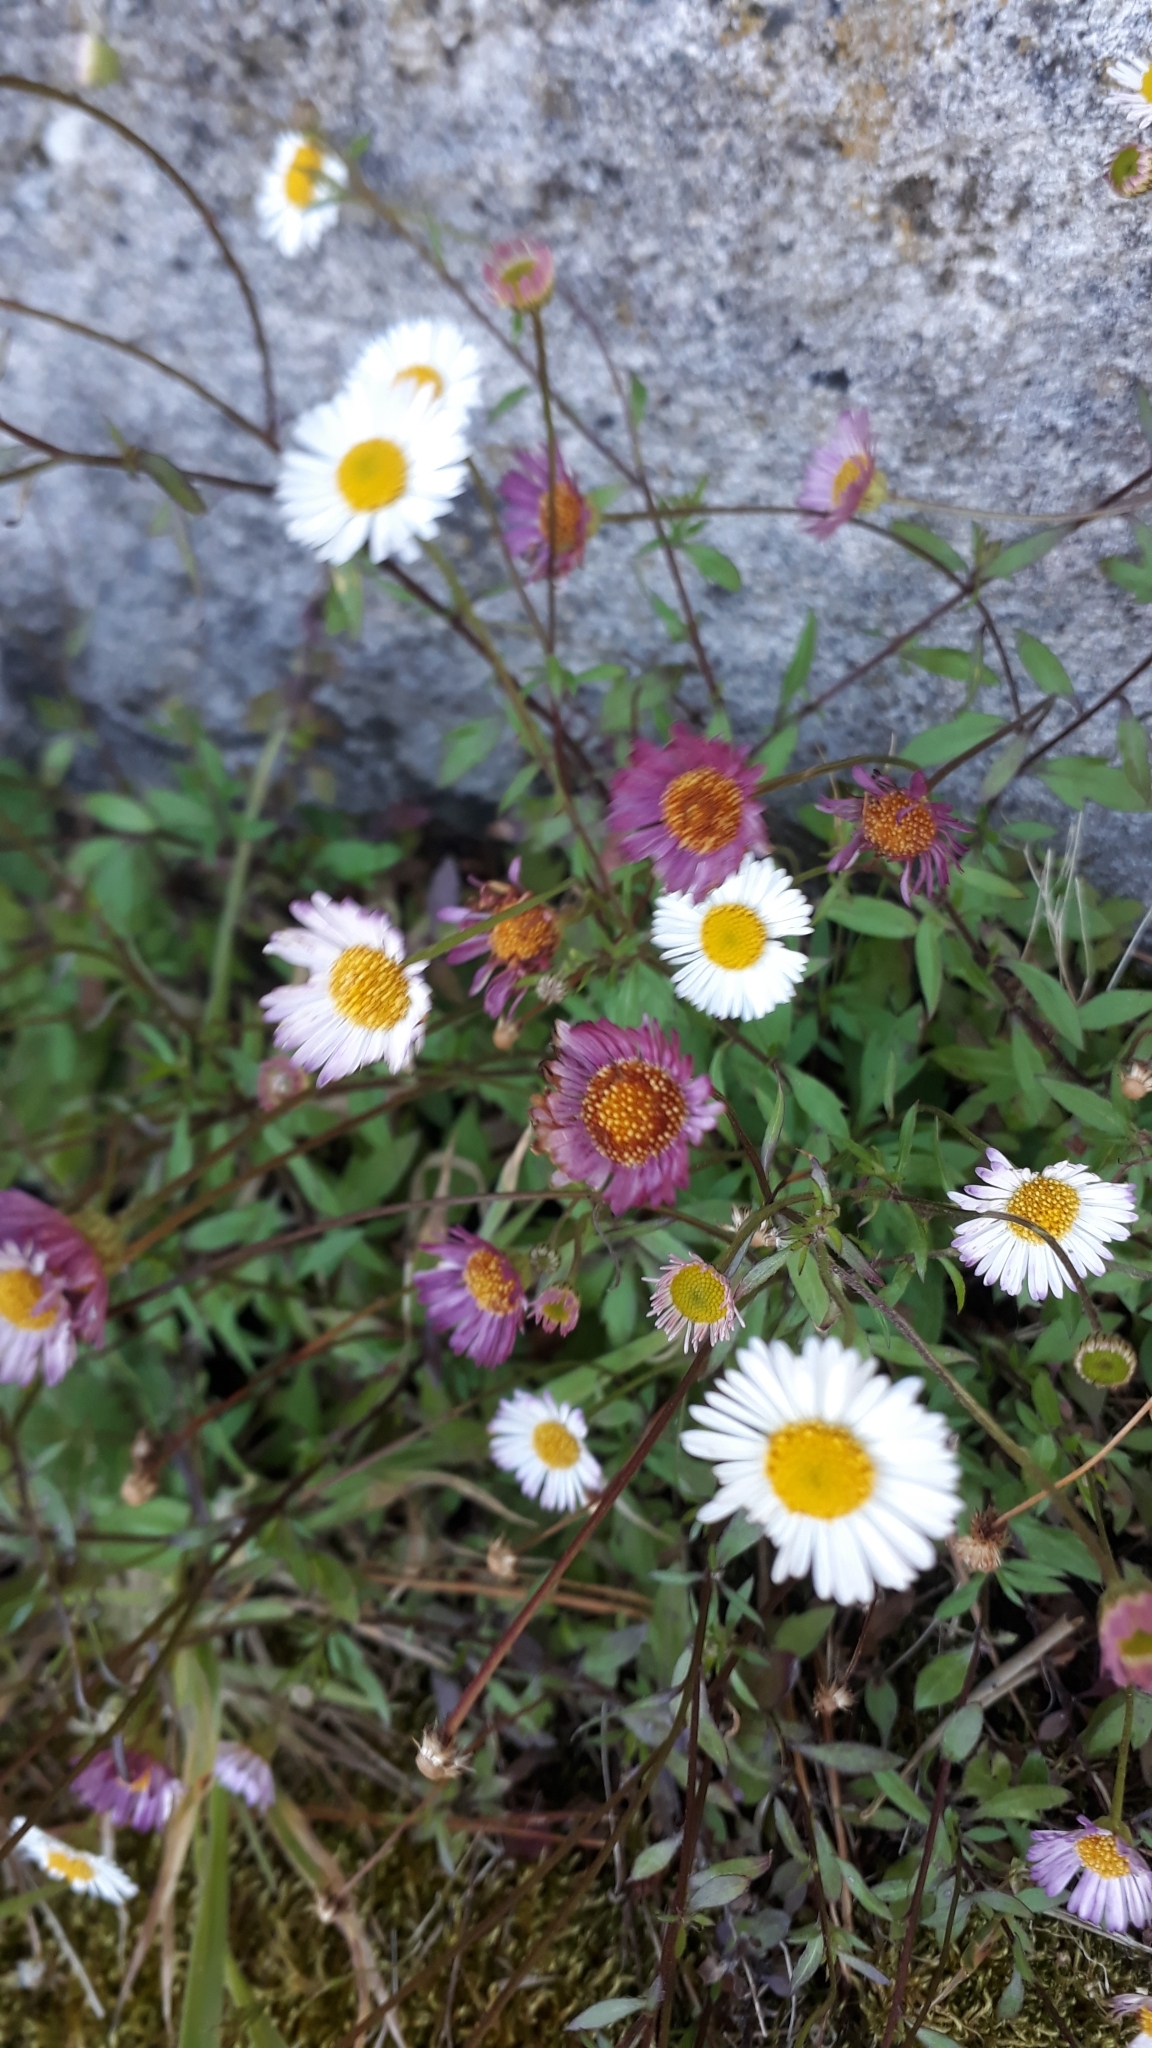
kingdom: Plantae
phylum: Tracheophyta
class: Magnoliopsida
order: Asterales
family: Asteraceae
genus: Erigeron
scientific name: Erigeron karvinskianus
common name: Mexican fleabane
